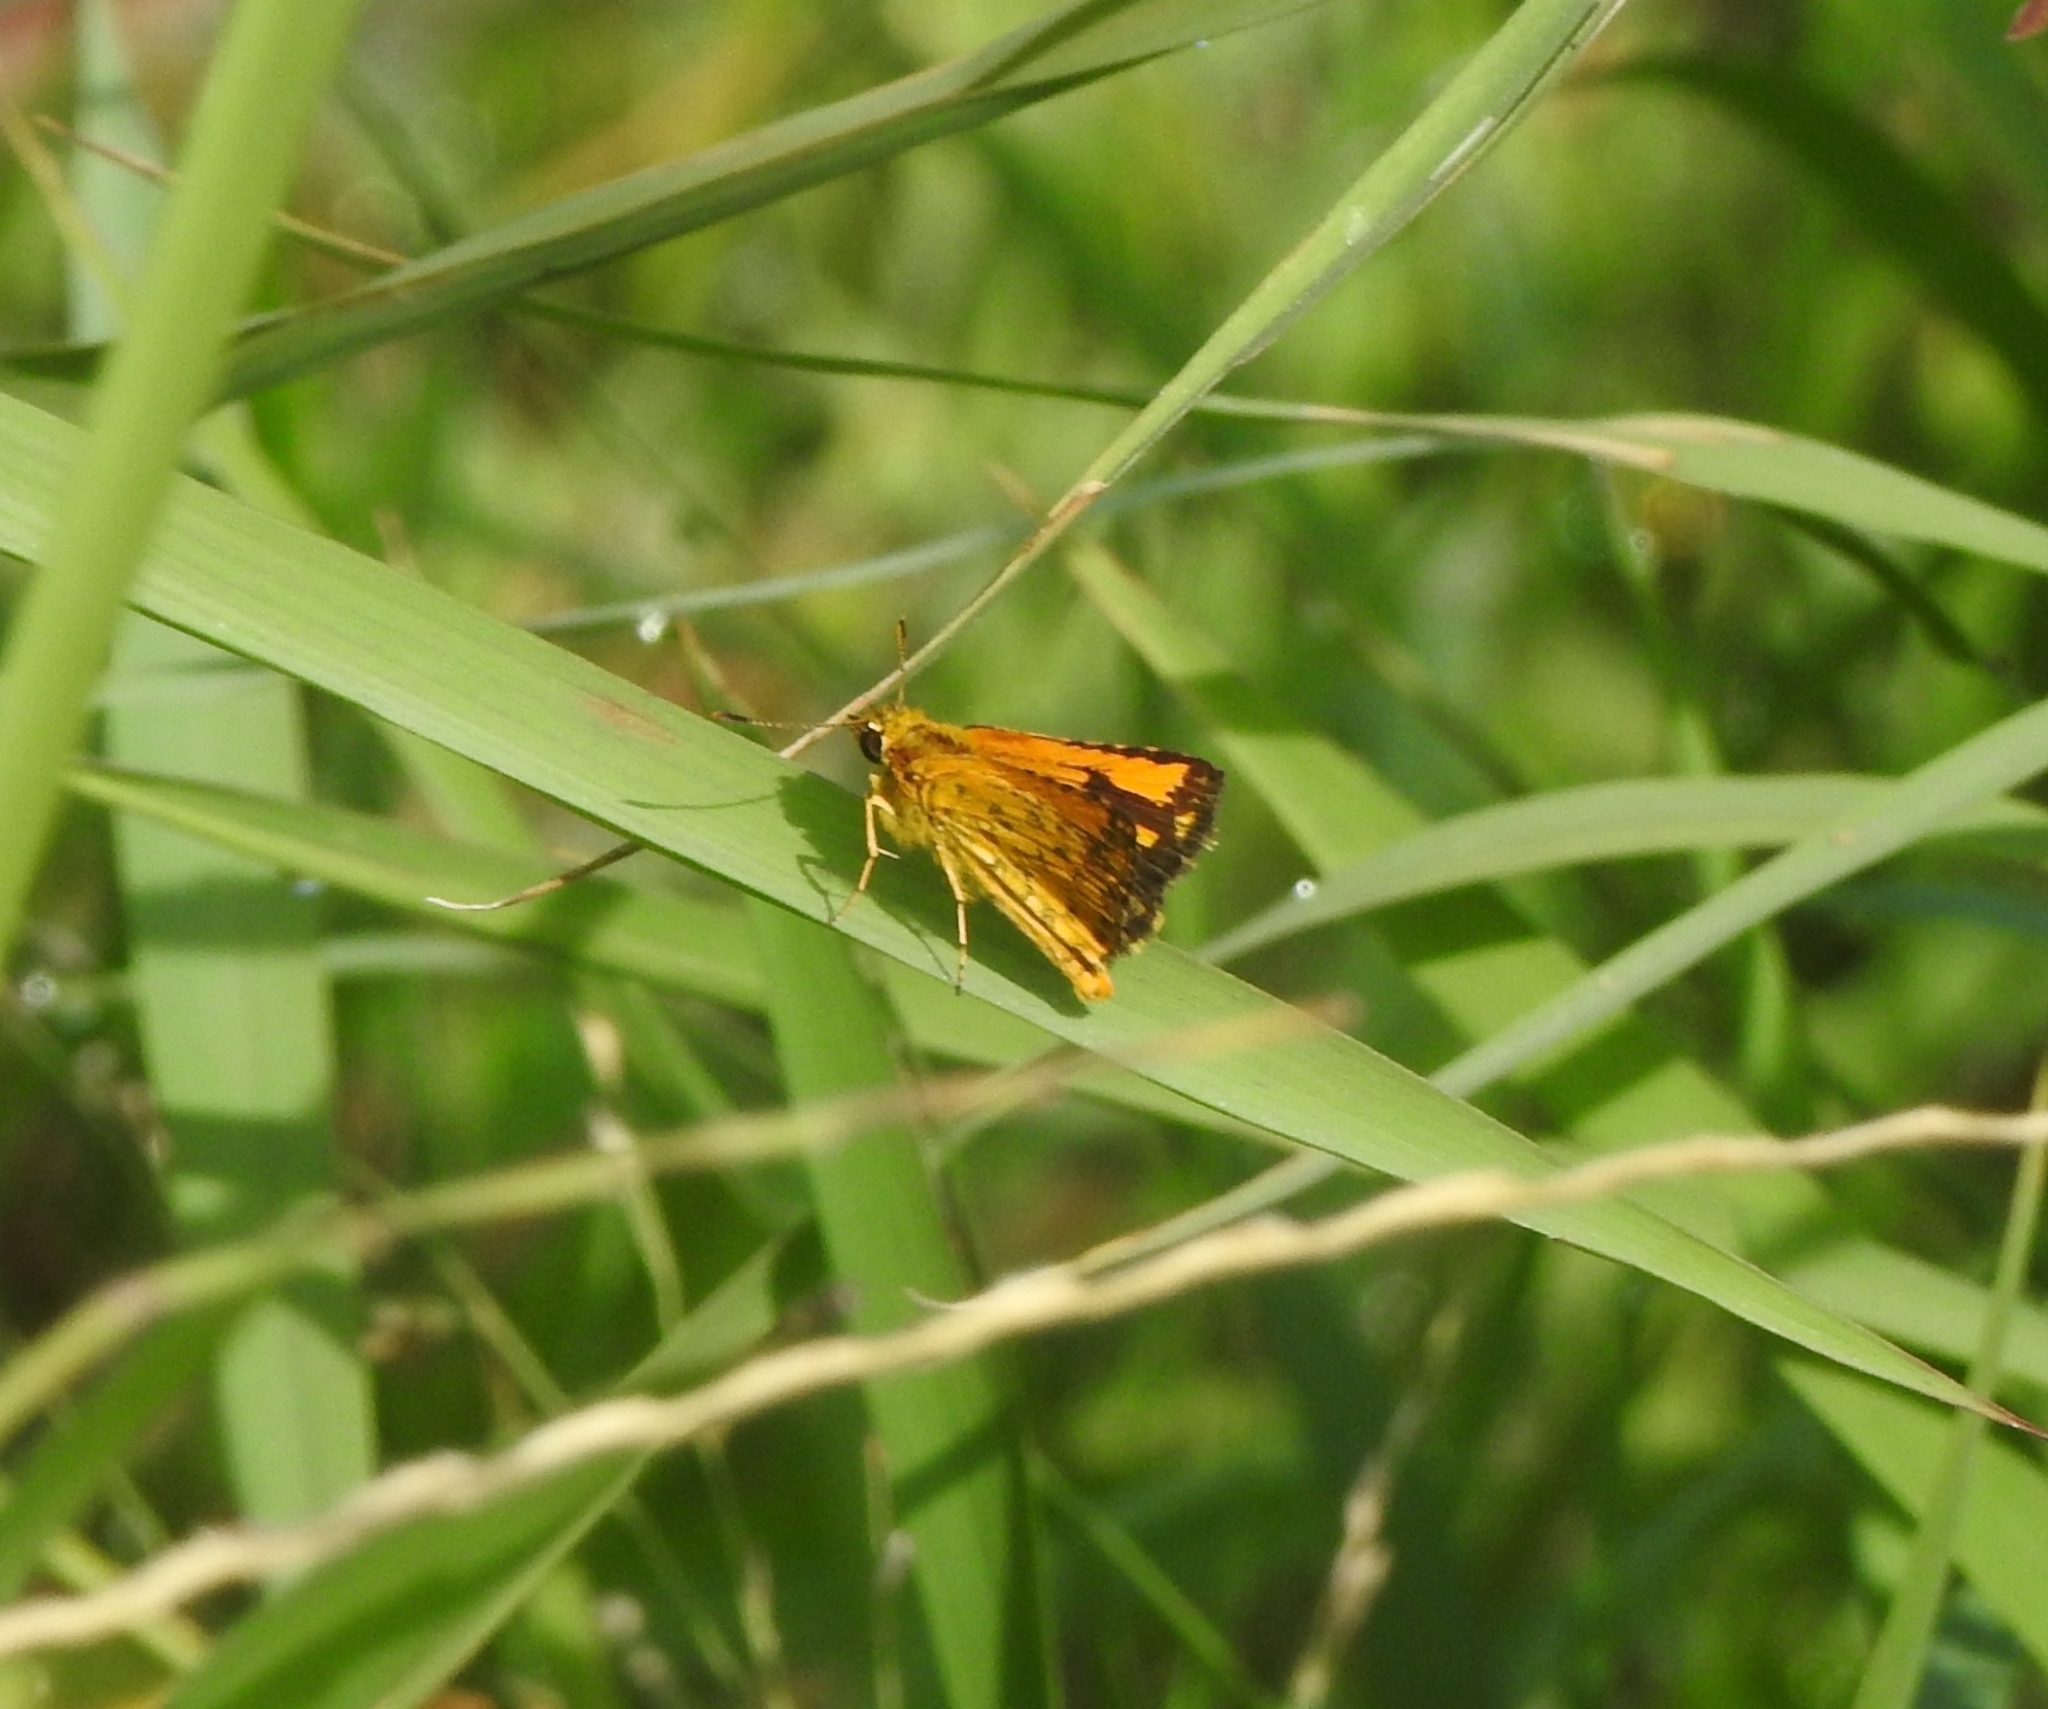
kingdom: Animalia
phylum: Arthropoda
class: Insecta
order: Lepidoptera
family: Hesperiidae
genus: Ampittia
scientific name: Ampittia dioscorides
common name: Common bush hopper
